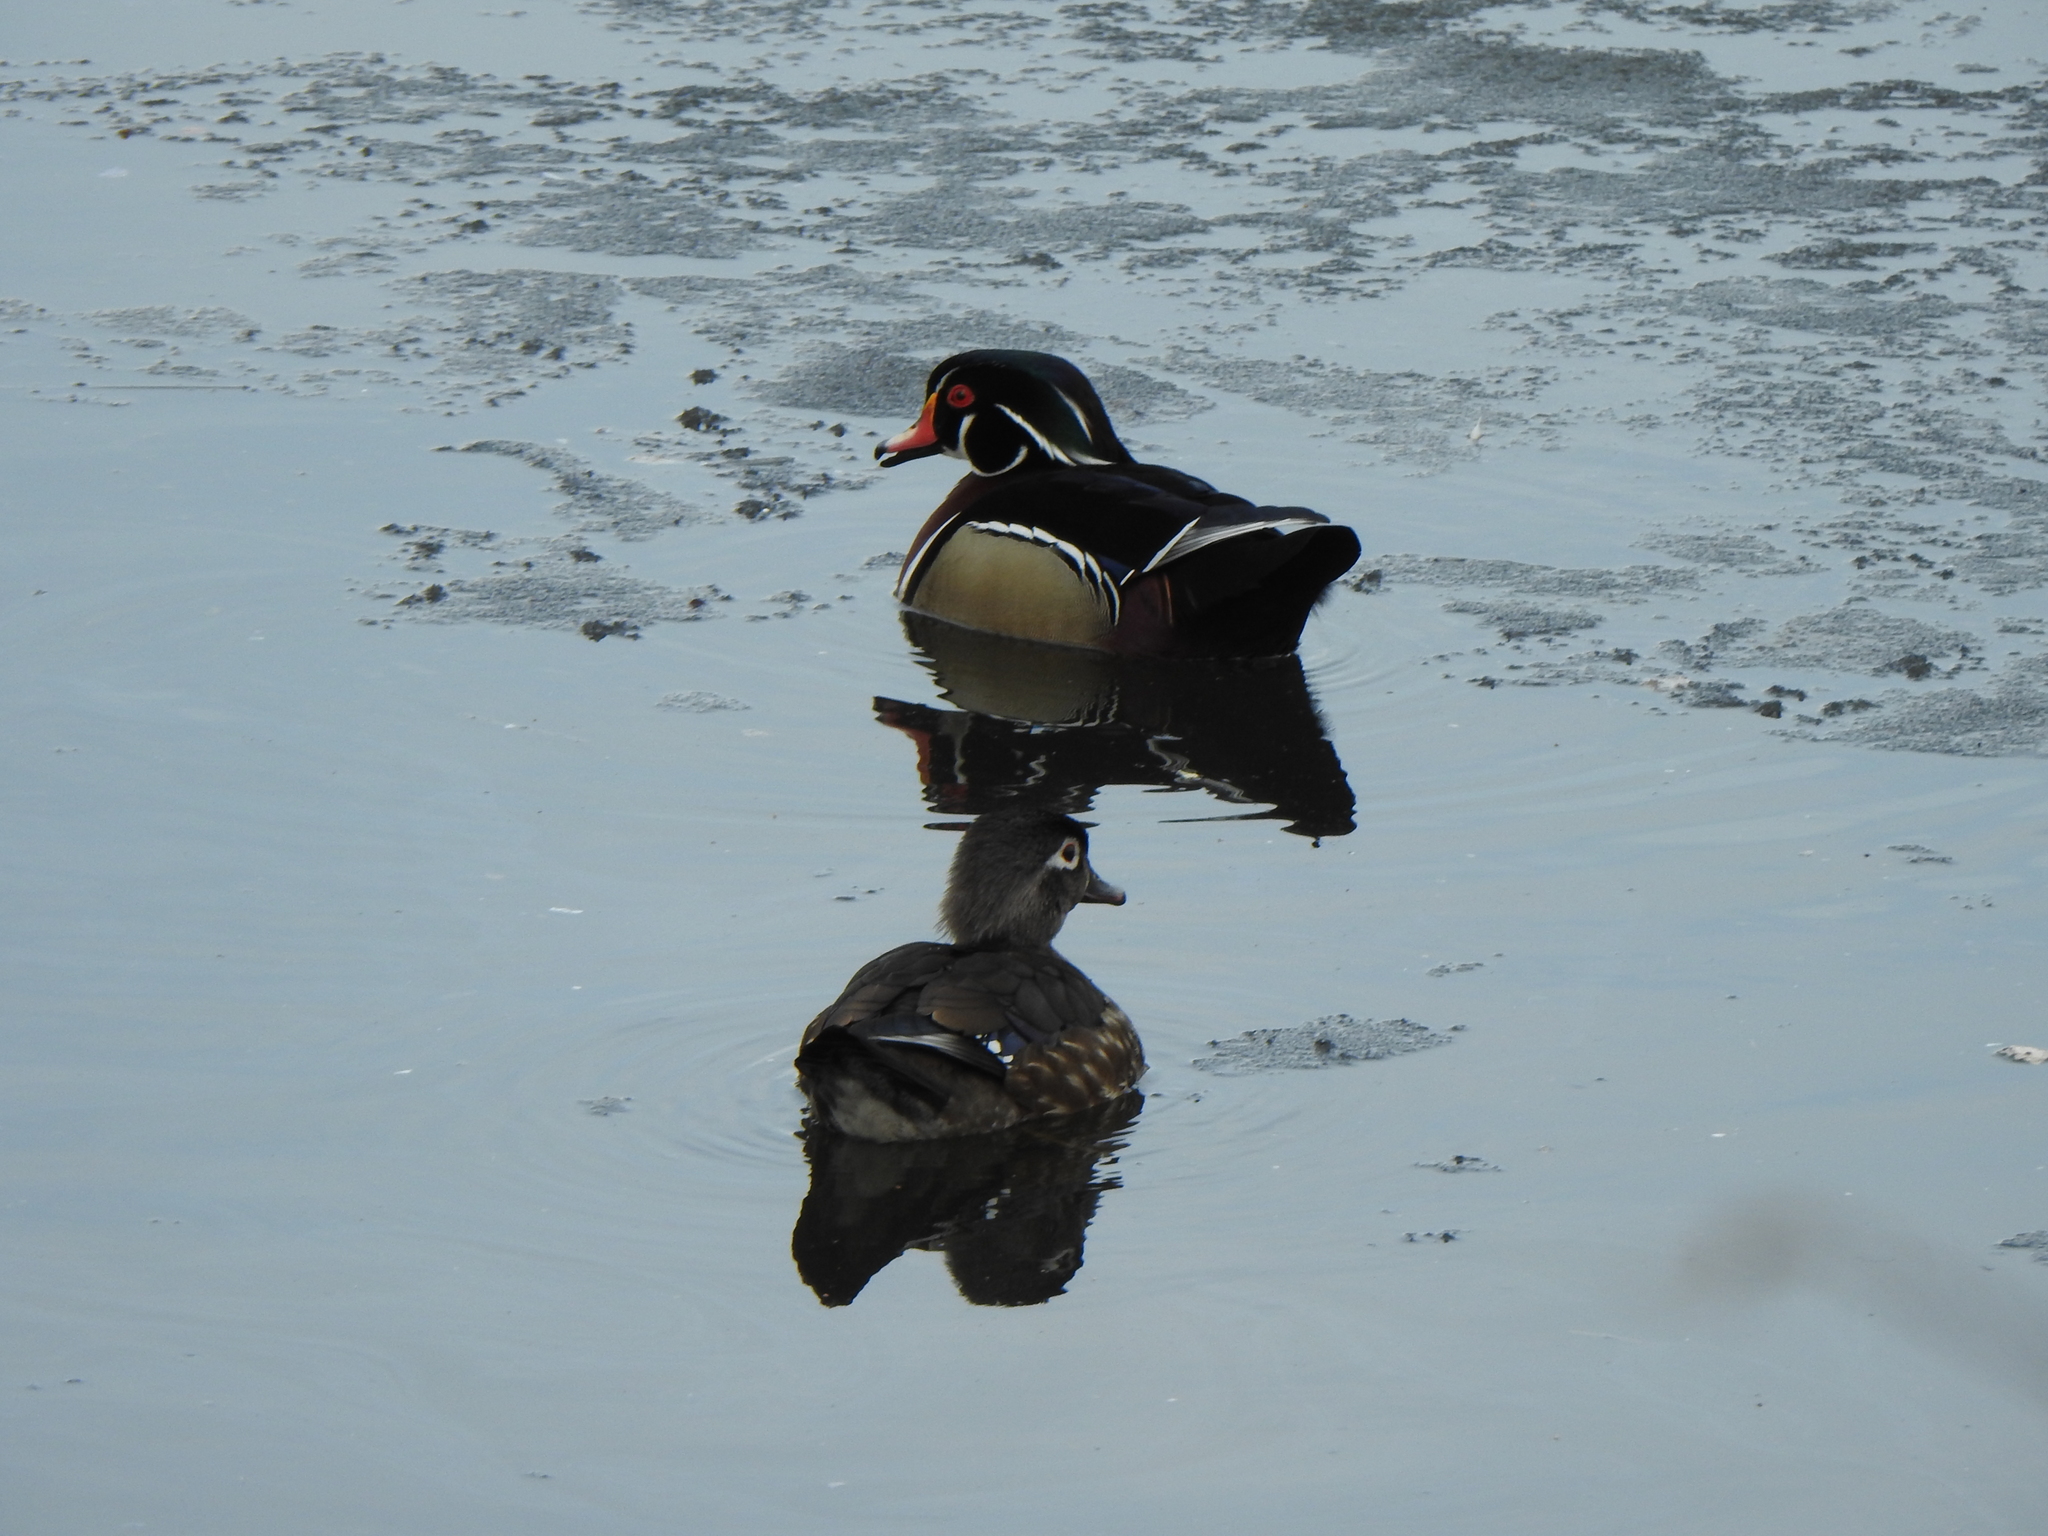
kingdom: Animalia
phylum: Chordata
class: Aves
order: Anseriformes
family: Anatidae
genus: Aix
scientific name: Aix sponsa
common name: Wood duck
